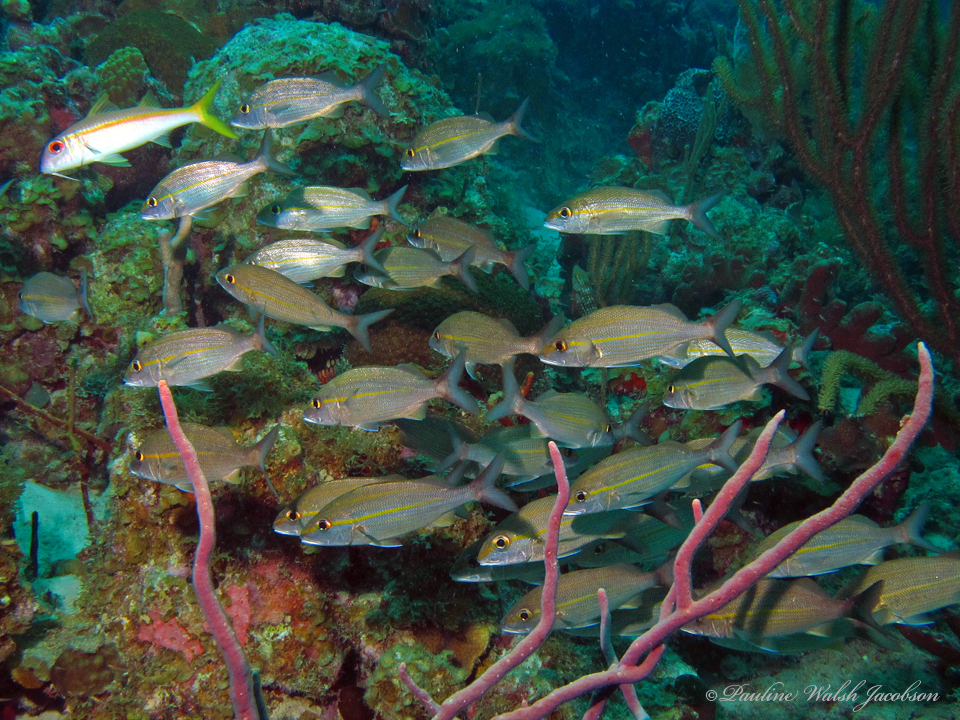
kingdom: Animalia
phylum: Chordata
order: Perciformes
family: Mullidae
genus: Mulloidichthys
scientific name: Mulloidichthys martinicus
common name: Yellow goatfish
